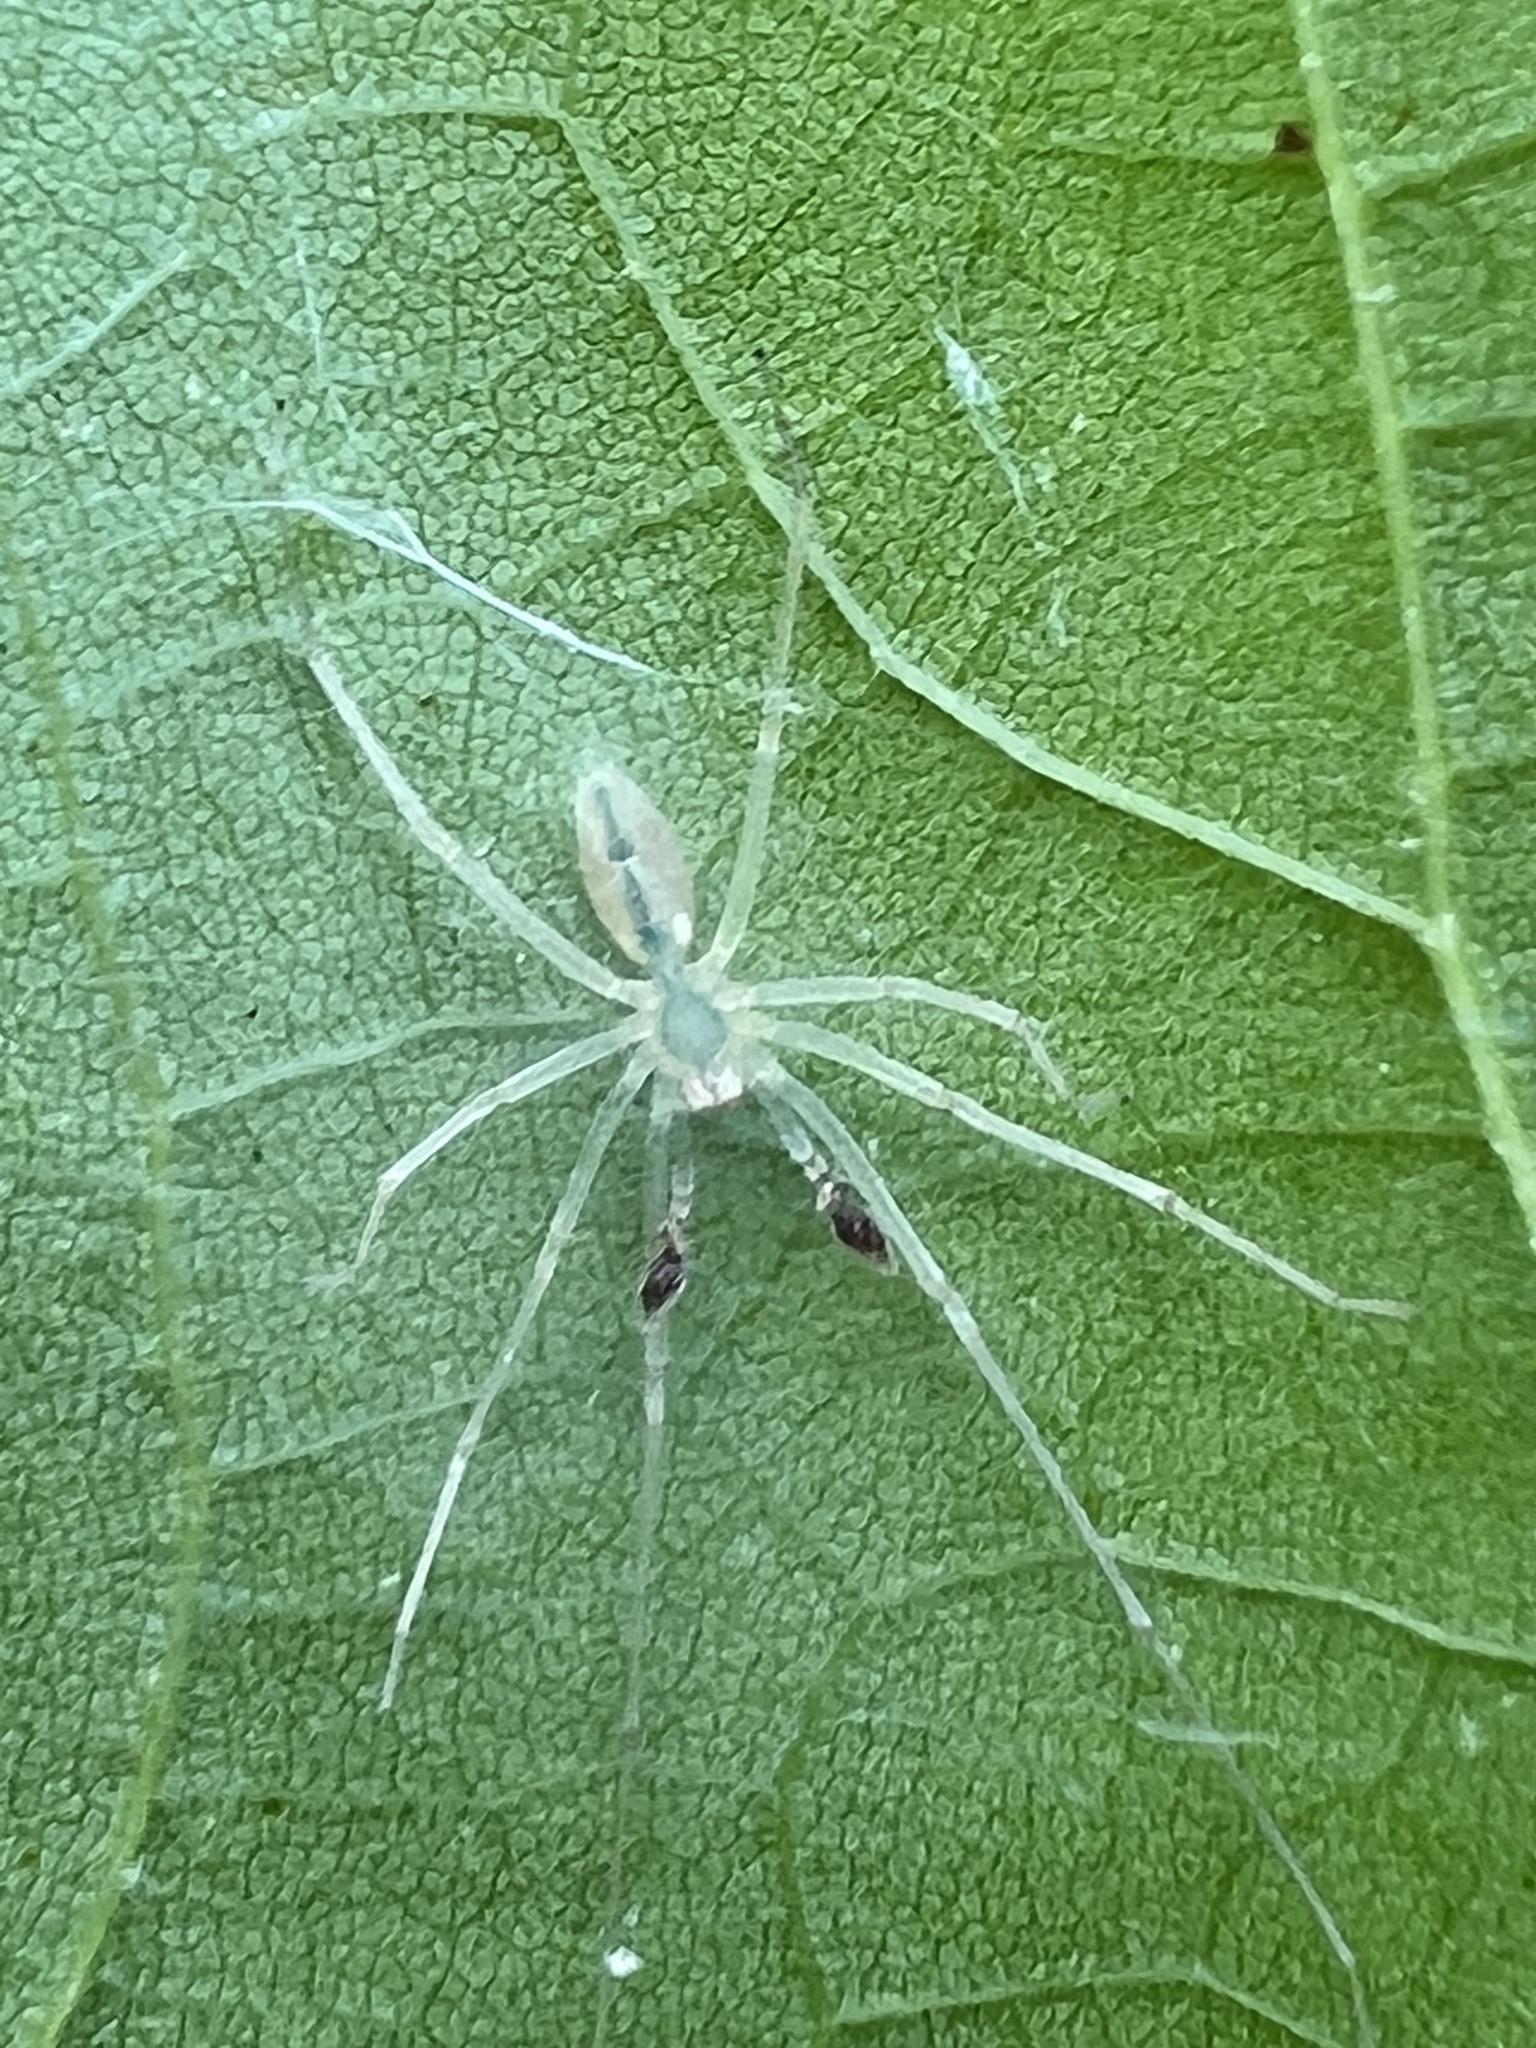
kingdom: Animalia
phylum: Arthropoda
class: Arachnida
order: Araneae
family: Anyphaenidae
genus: Wulfila
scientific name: Wulfila albens
